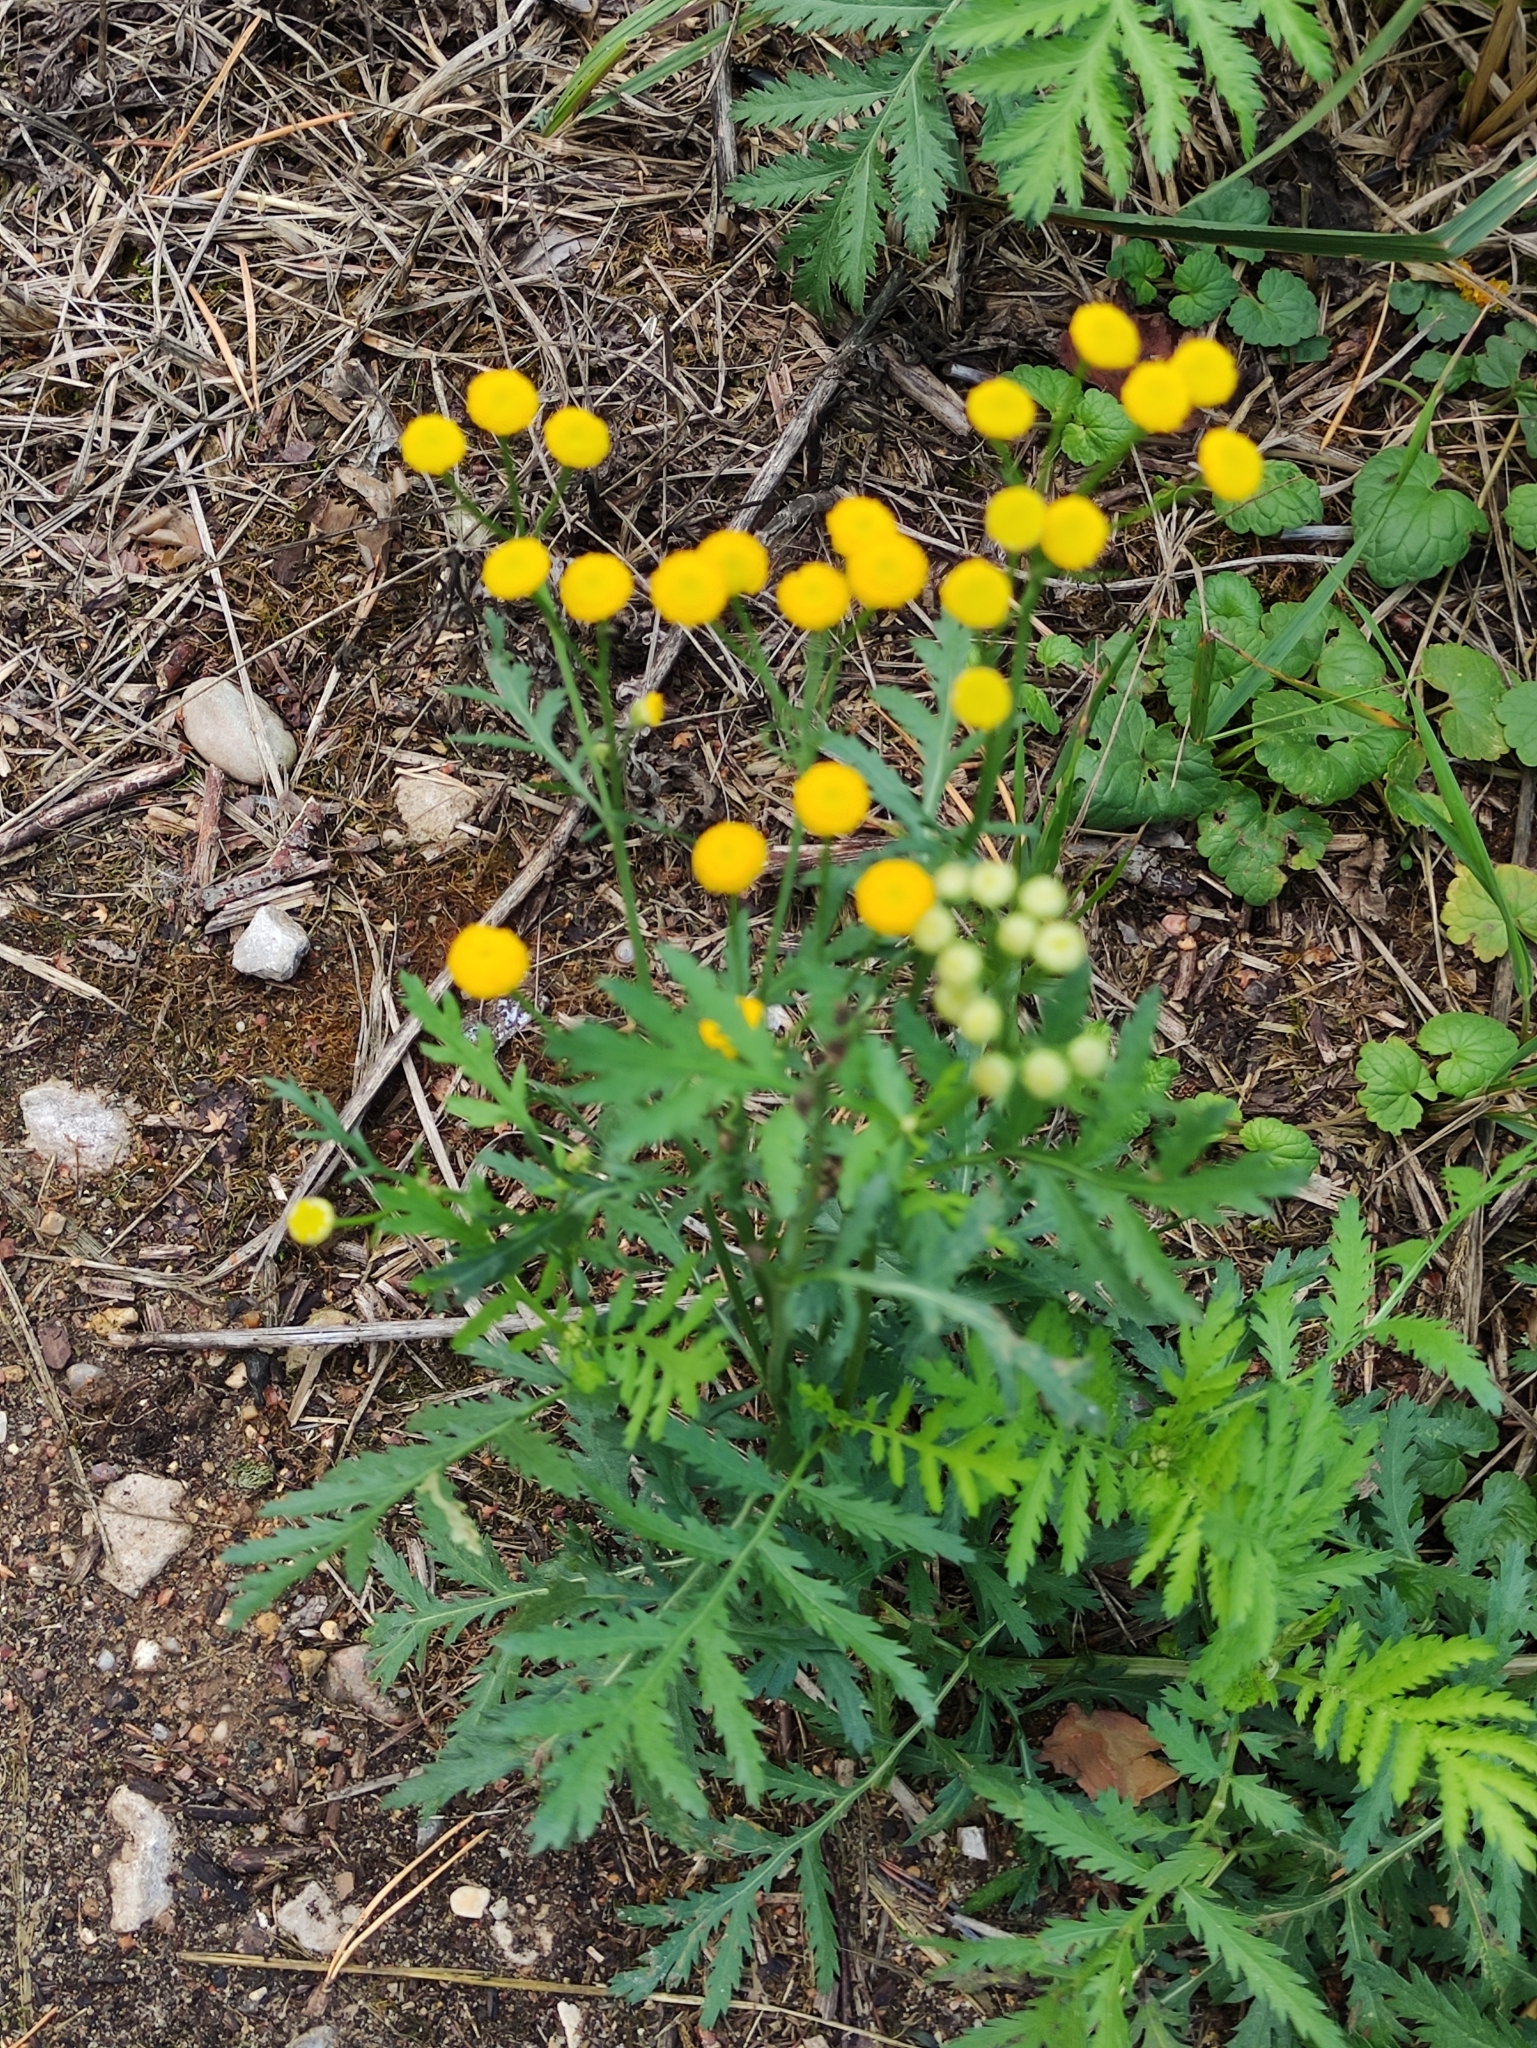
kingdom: Plantae
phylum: Tracheophyta
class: Magnoliopsida
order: Asterales
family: Asteraceae
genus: Tanacetum
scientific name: Tanacetum vulgare
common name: Common tansy
